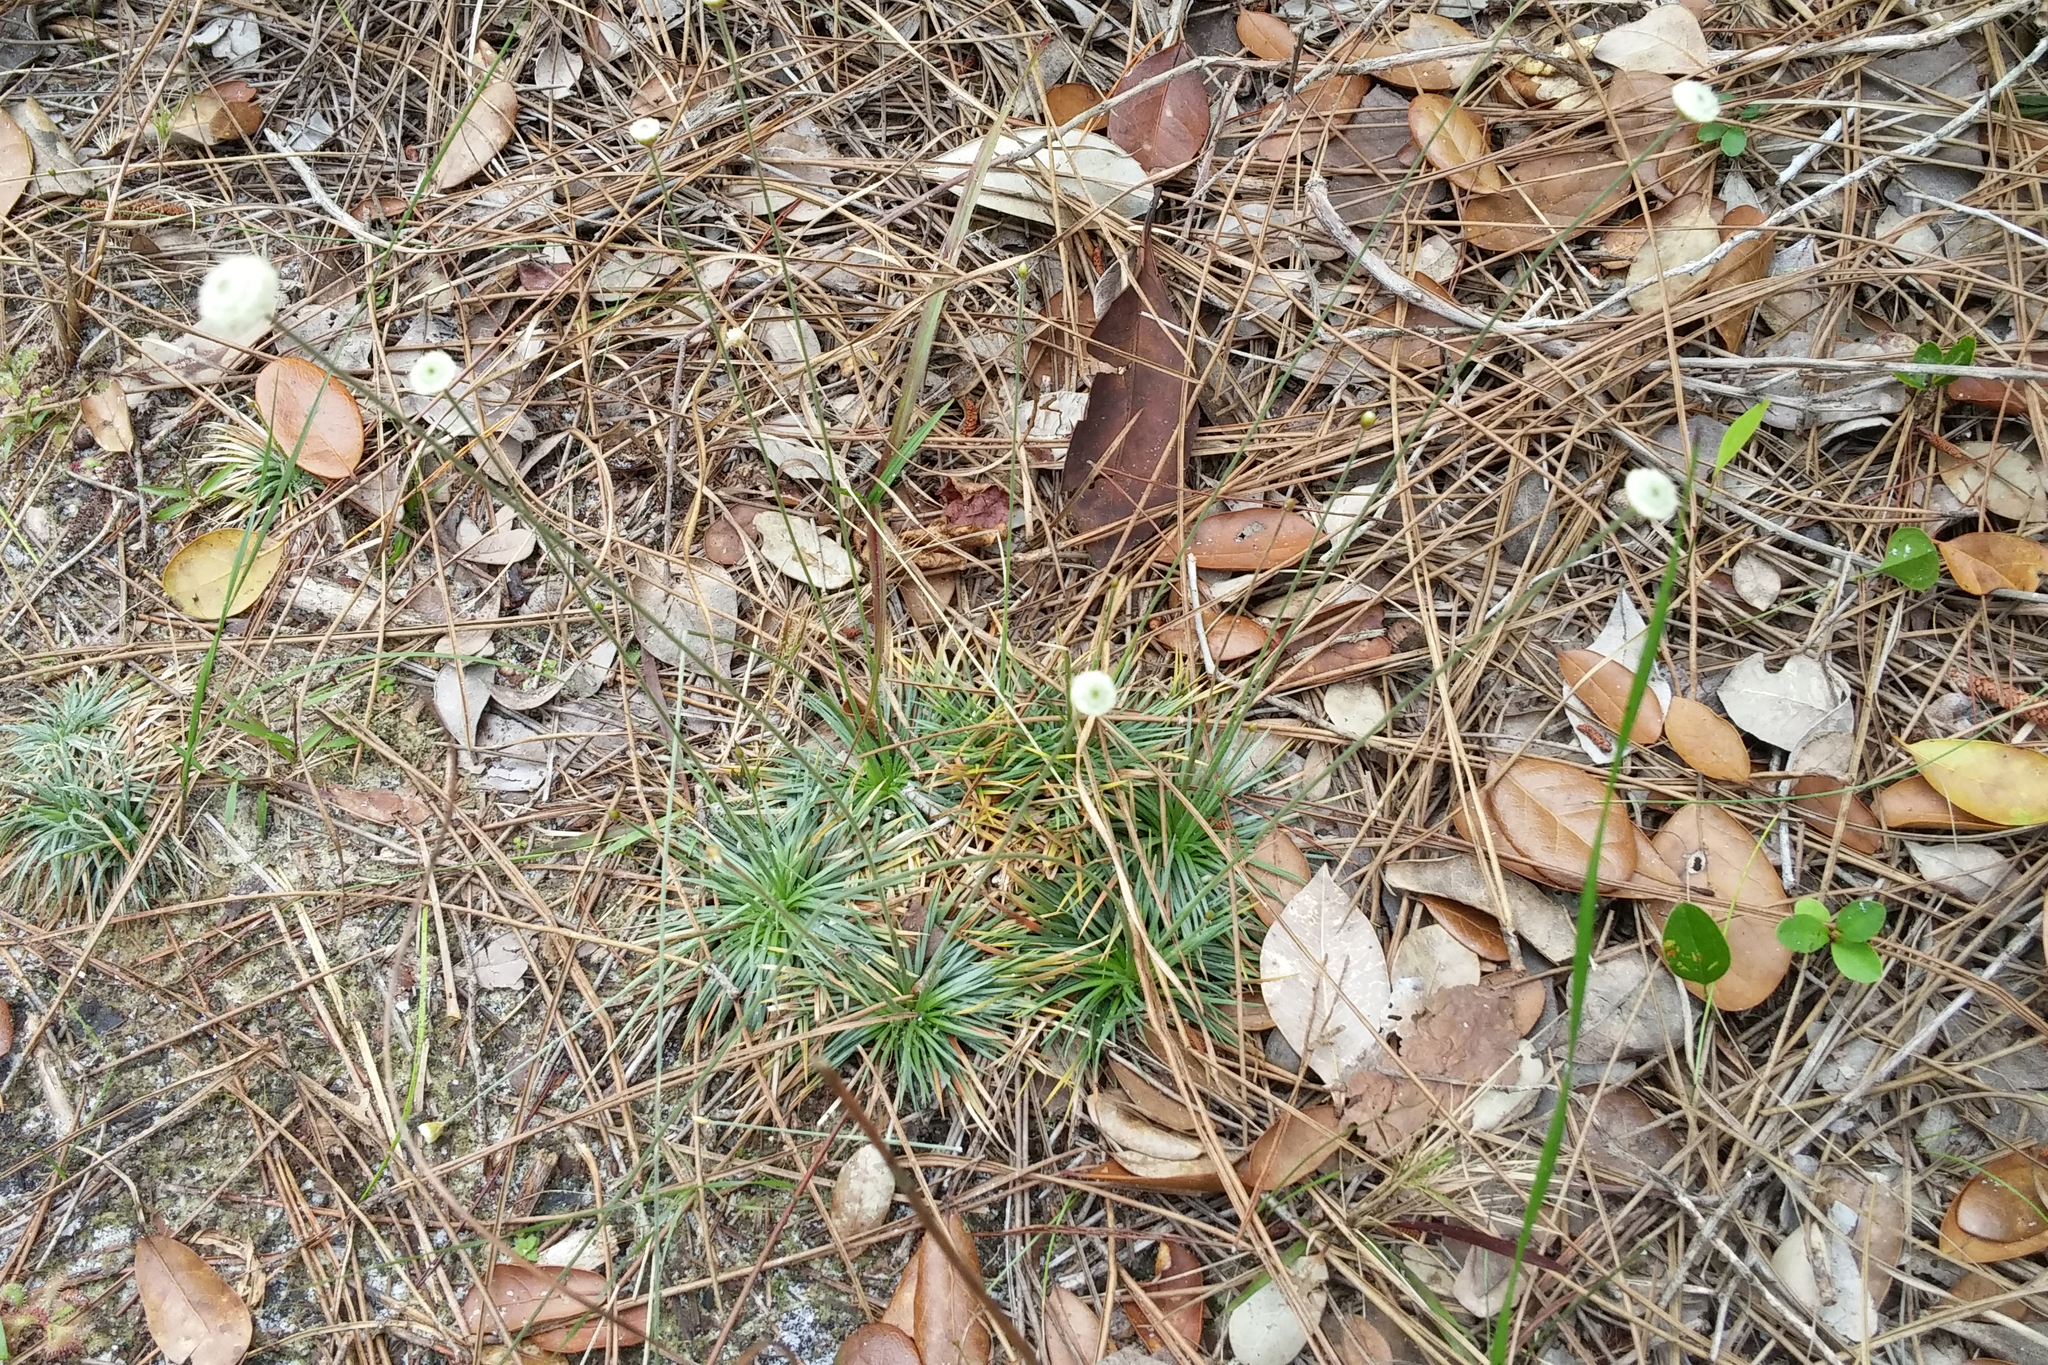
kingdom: Plantae
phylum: Tracheophyta
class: Liliopsida
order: Poales
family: Eriocaulaceae
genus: Syngonanthus
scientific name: Syngonanthus flavidulus
